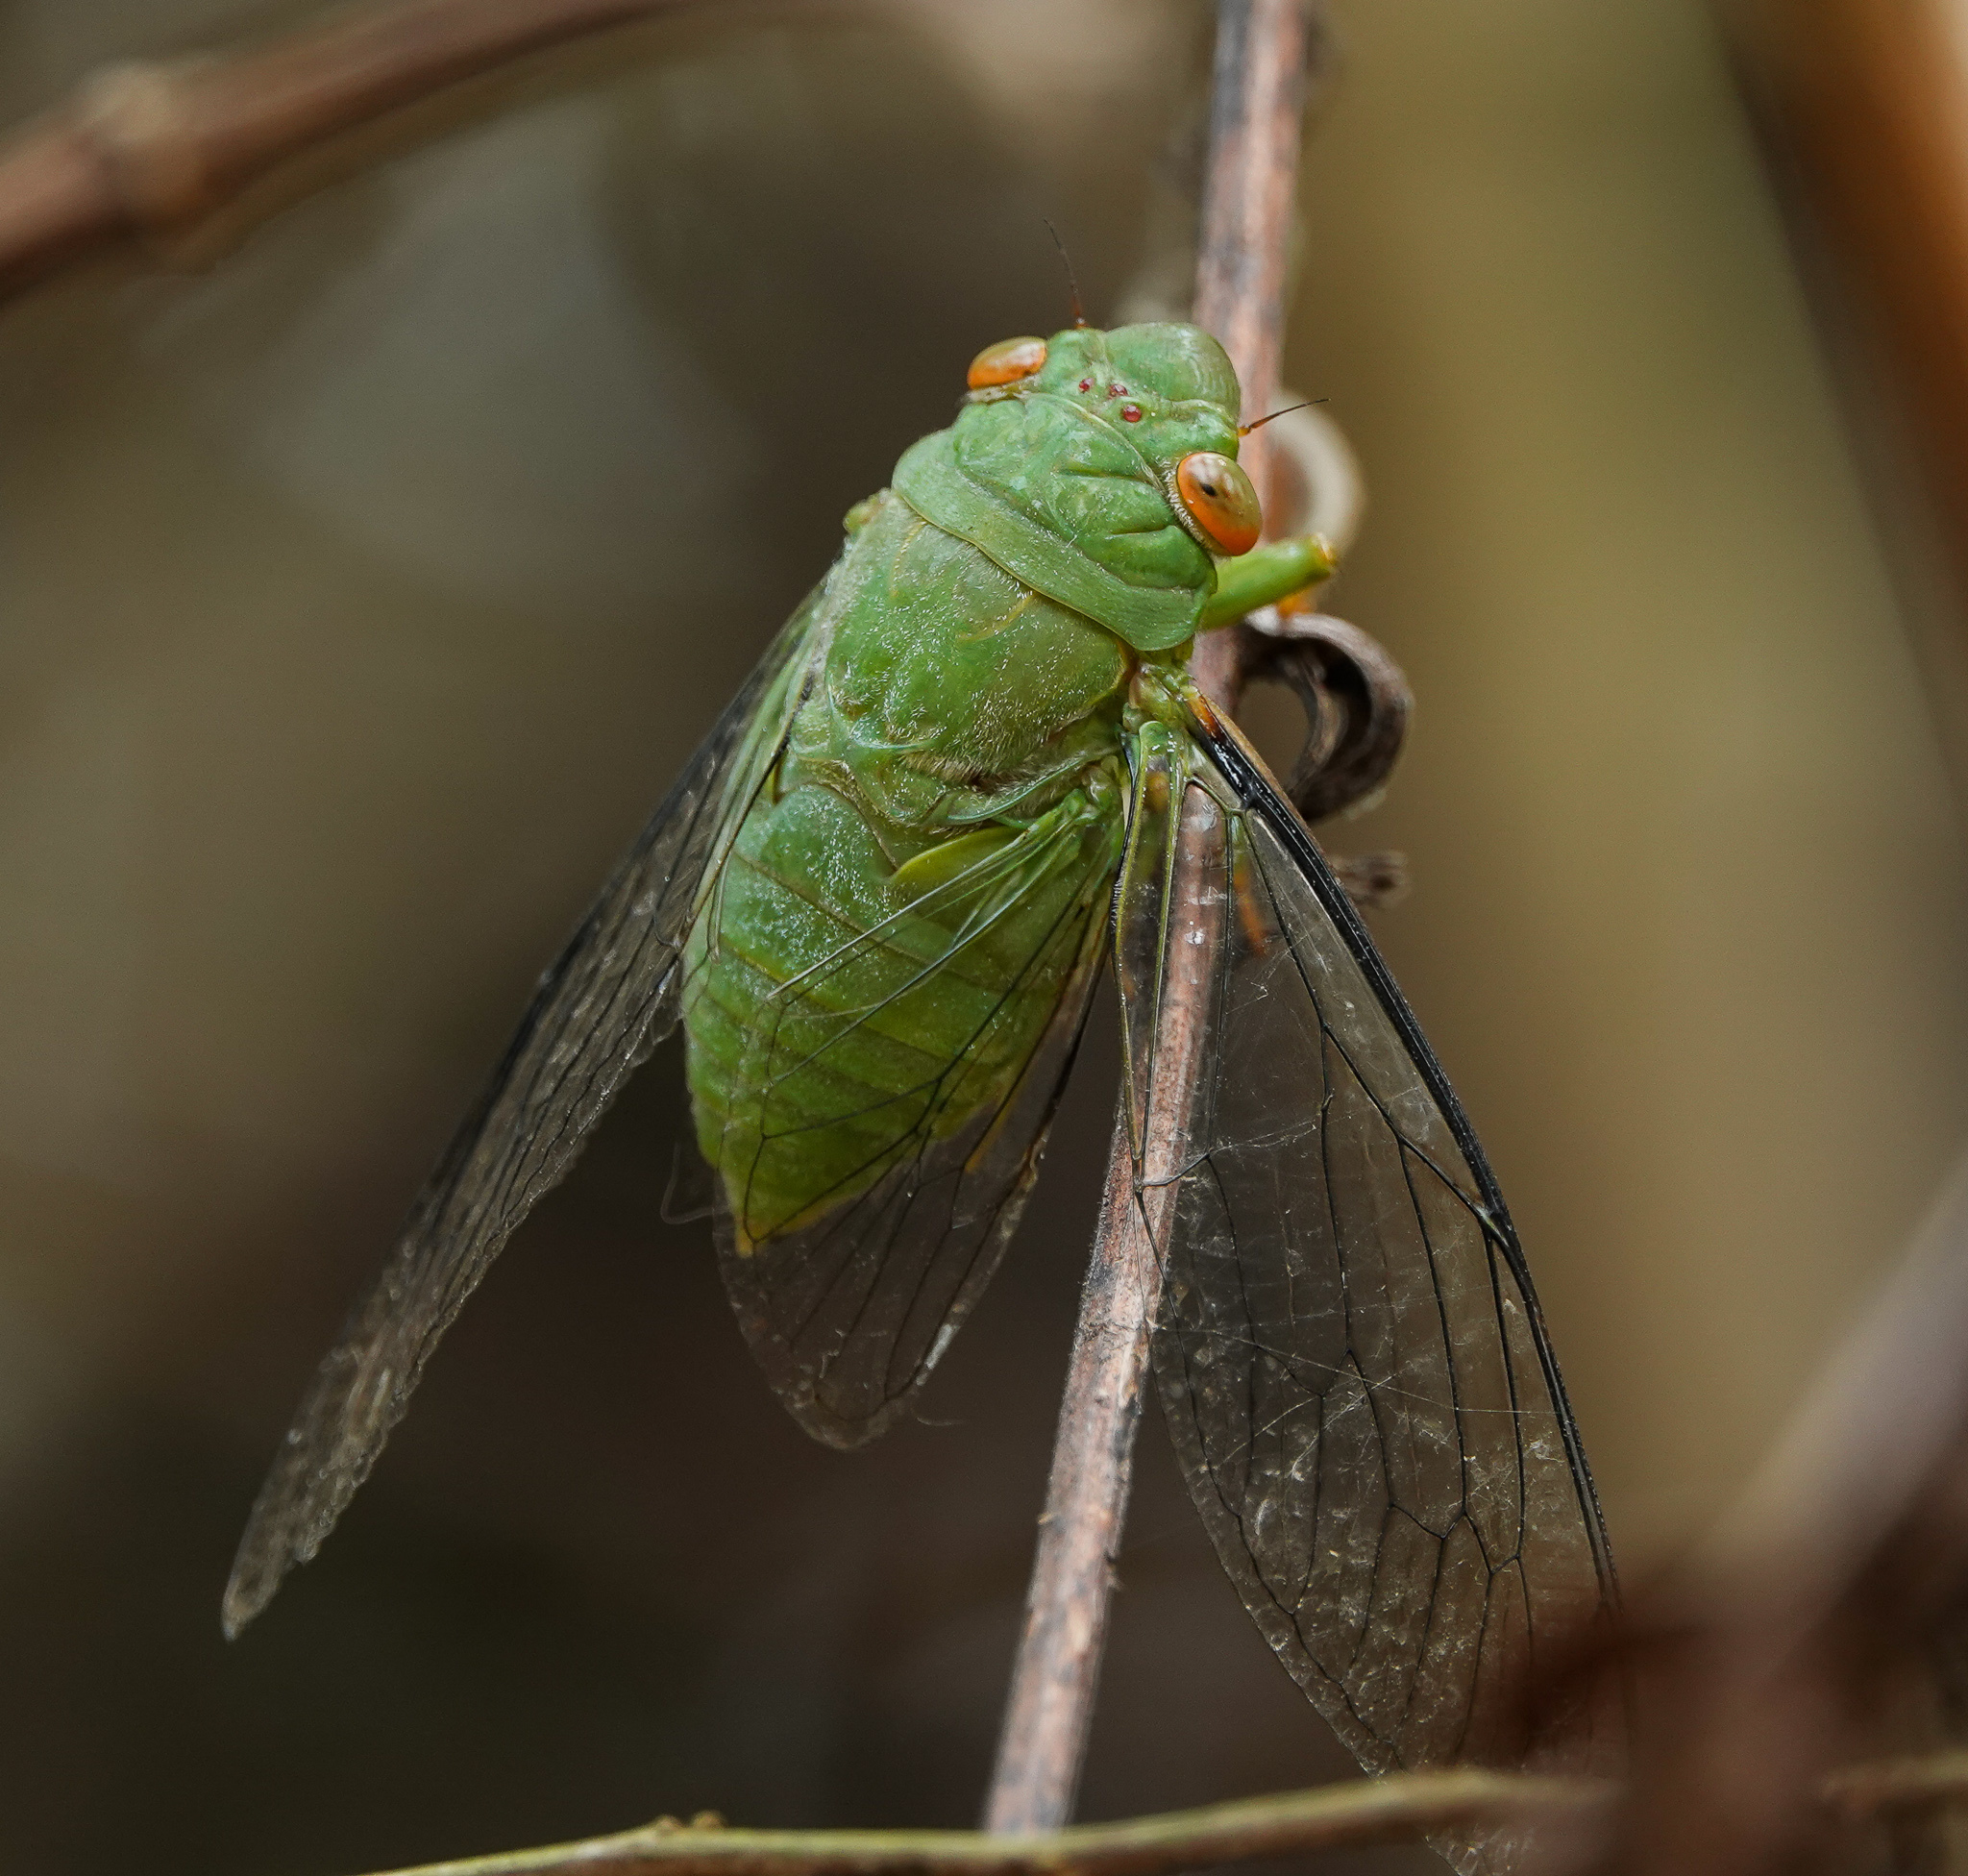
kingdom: Animalia
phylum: Arthropoda
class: Insecta
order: Hemiptera
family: Cicadidae
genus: Dundubia
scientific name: Dundubia annandalei
